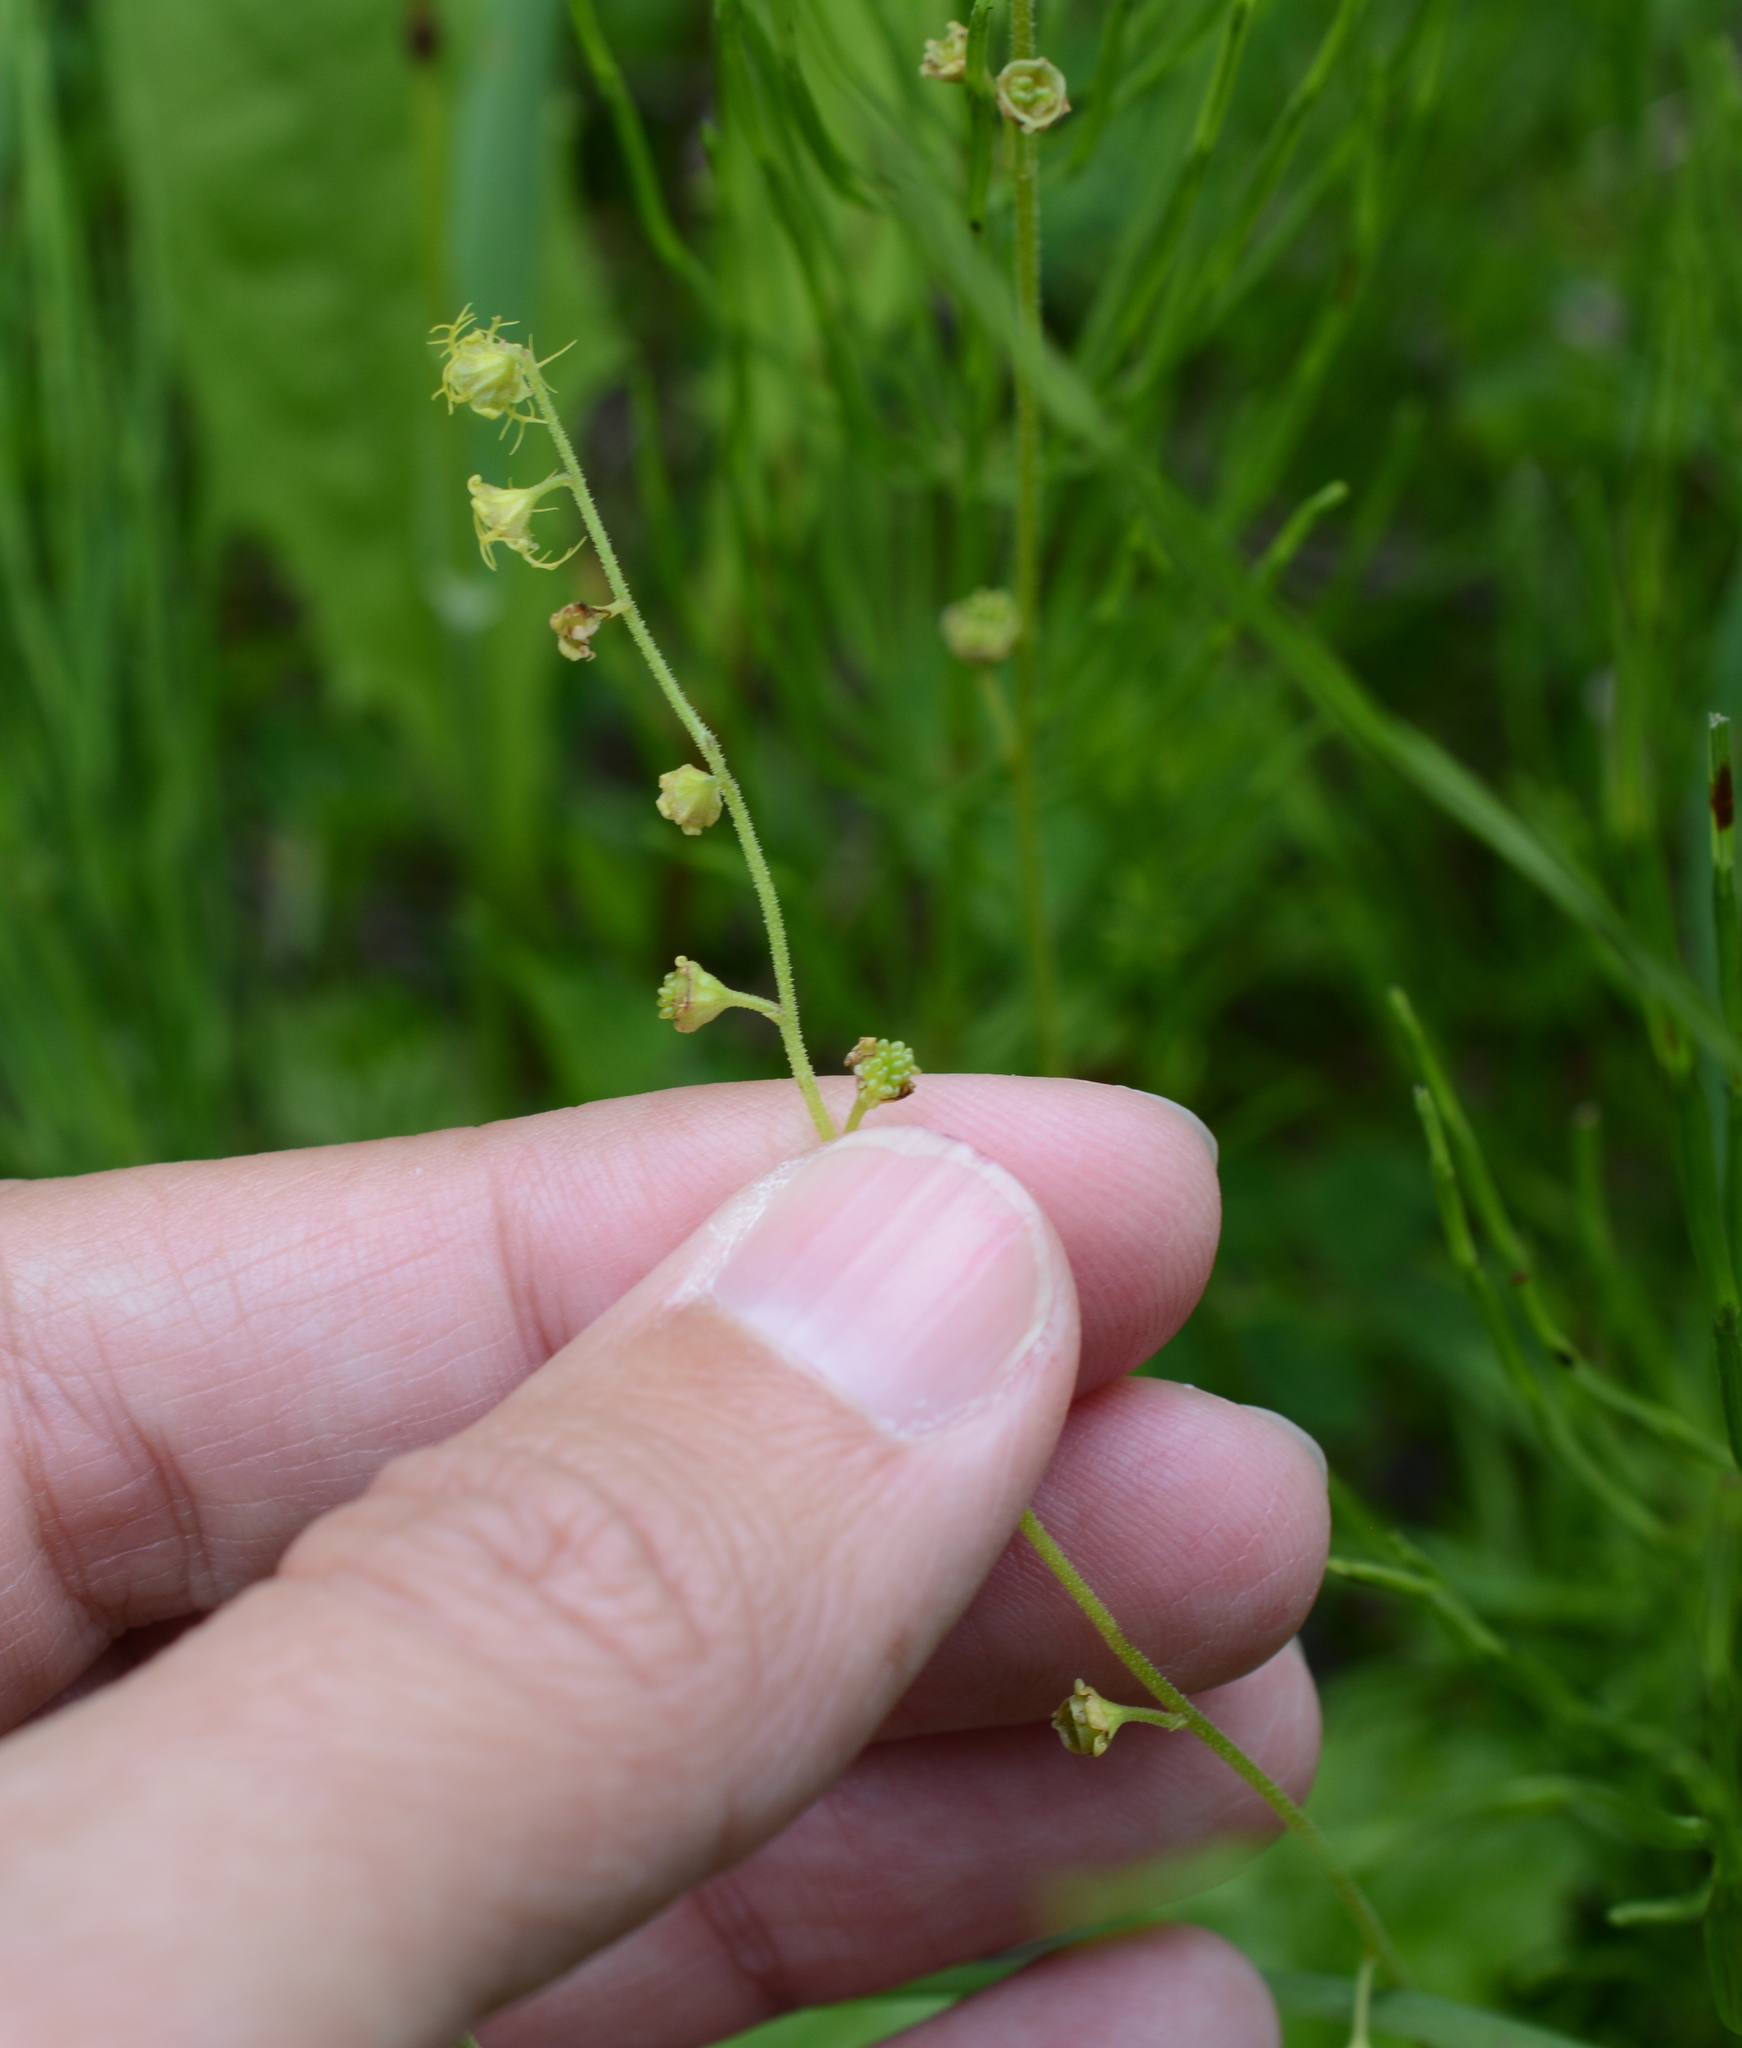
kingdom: Plantae
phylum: Tracheophyta
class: Magnoliopsida
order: Saxifragales
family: Saxifragaceae
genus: Pectiantia
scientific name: Pectiantia pentandra
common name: Alpine bishop's-cap
